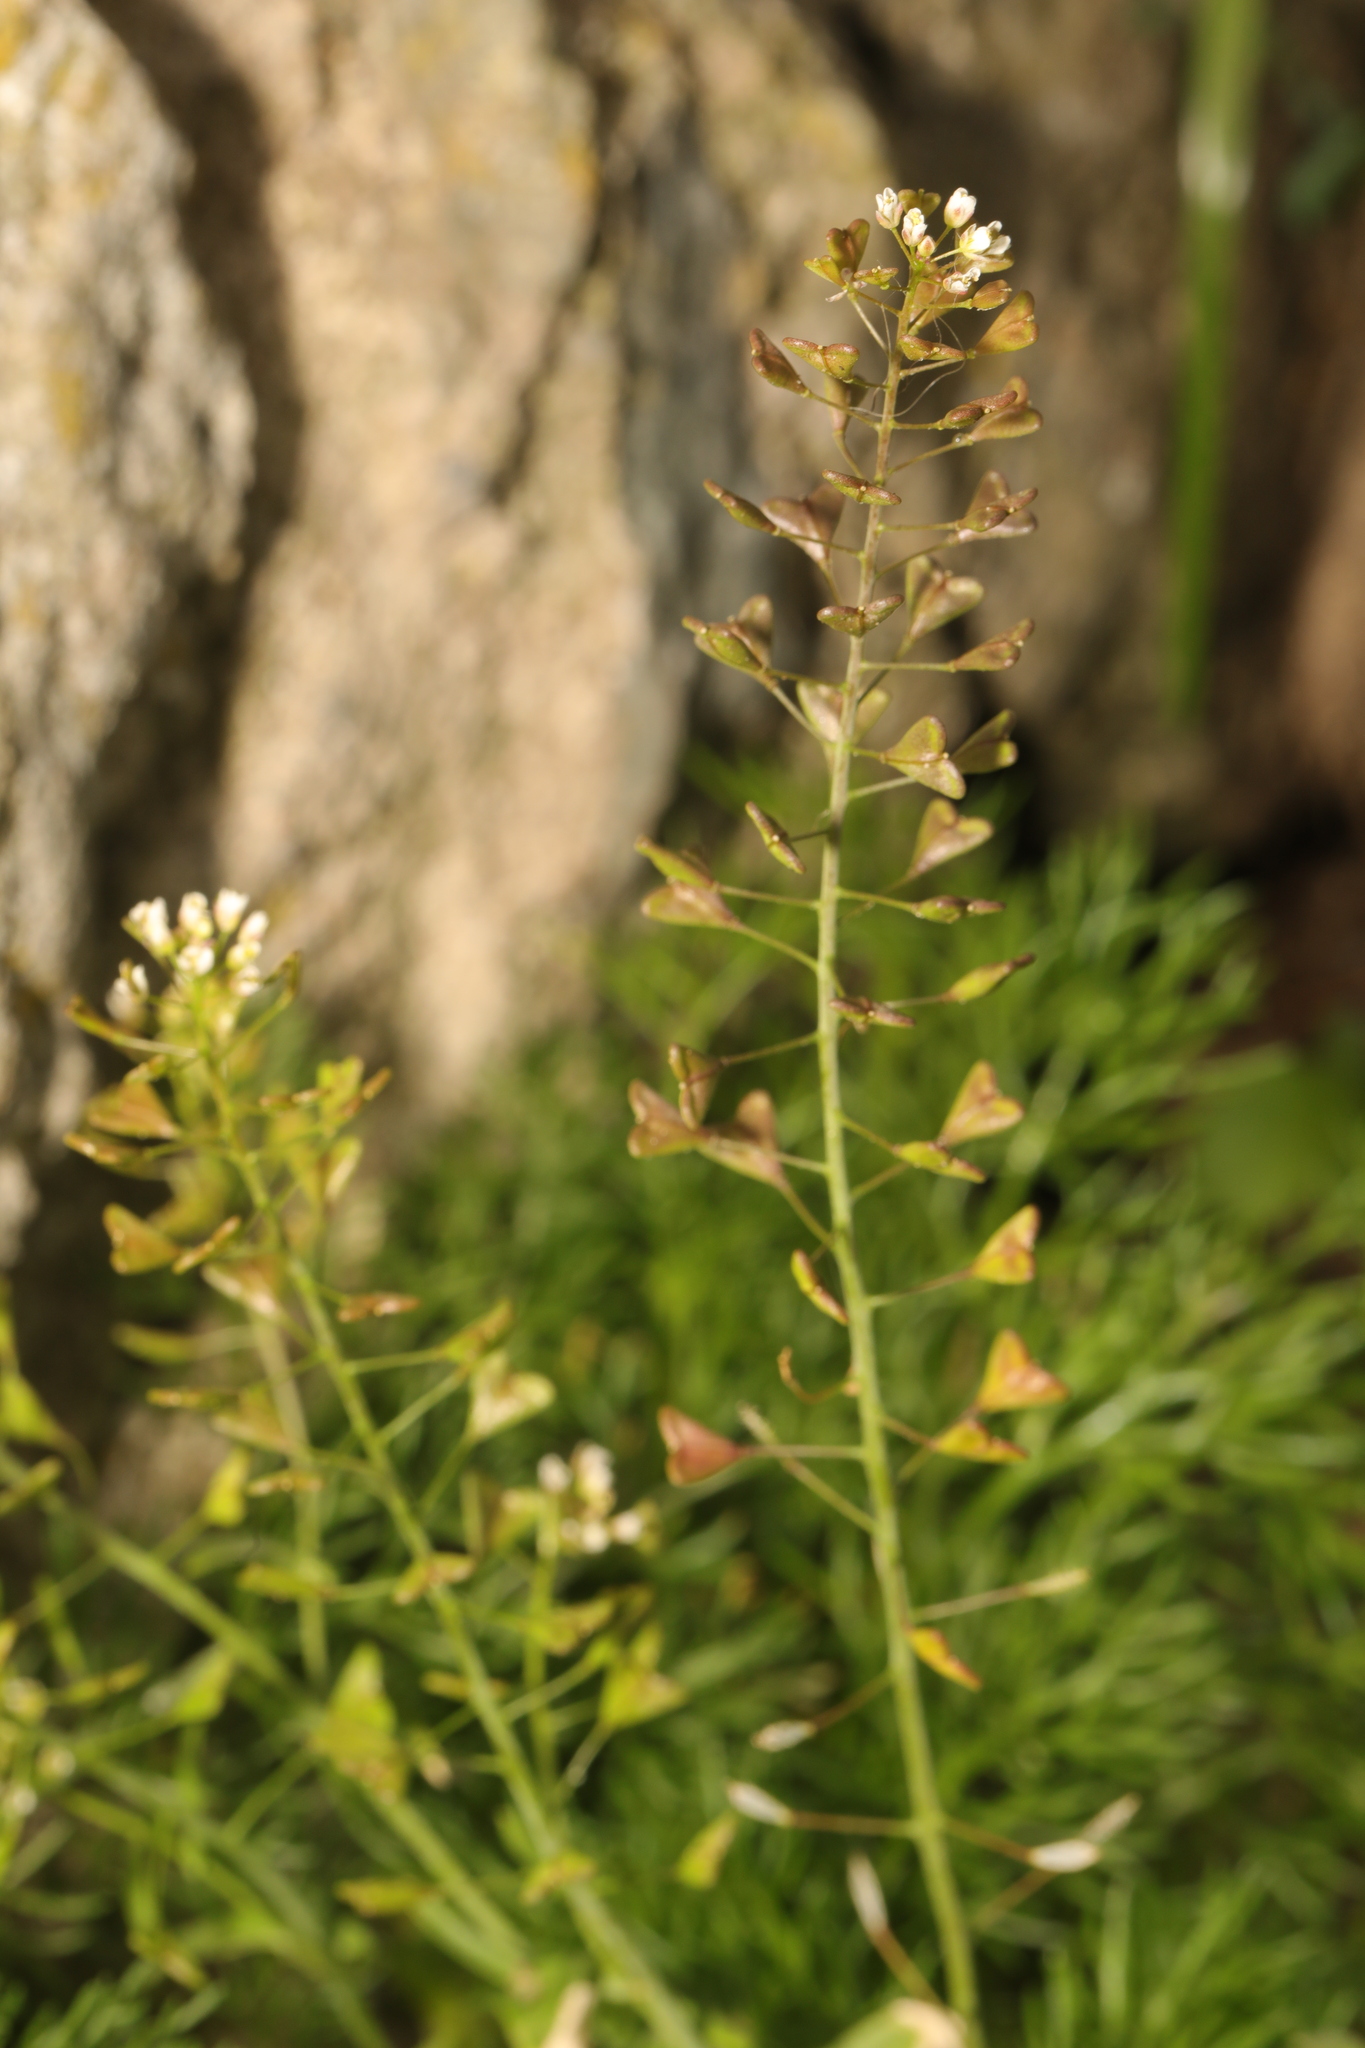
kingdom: Plantae
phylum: Tracheophyta
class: Magnoliopsida
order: Brassicales
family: Brassicaceae
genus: Capsella
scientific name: Capsella bursa-pastoris
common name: Shepherd's purse
